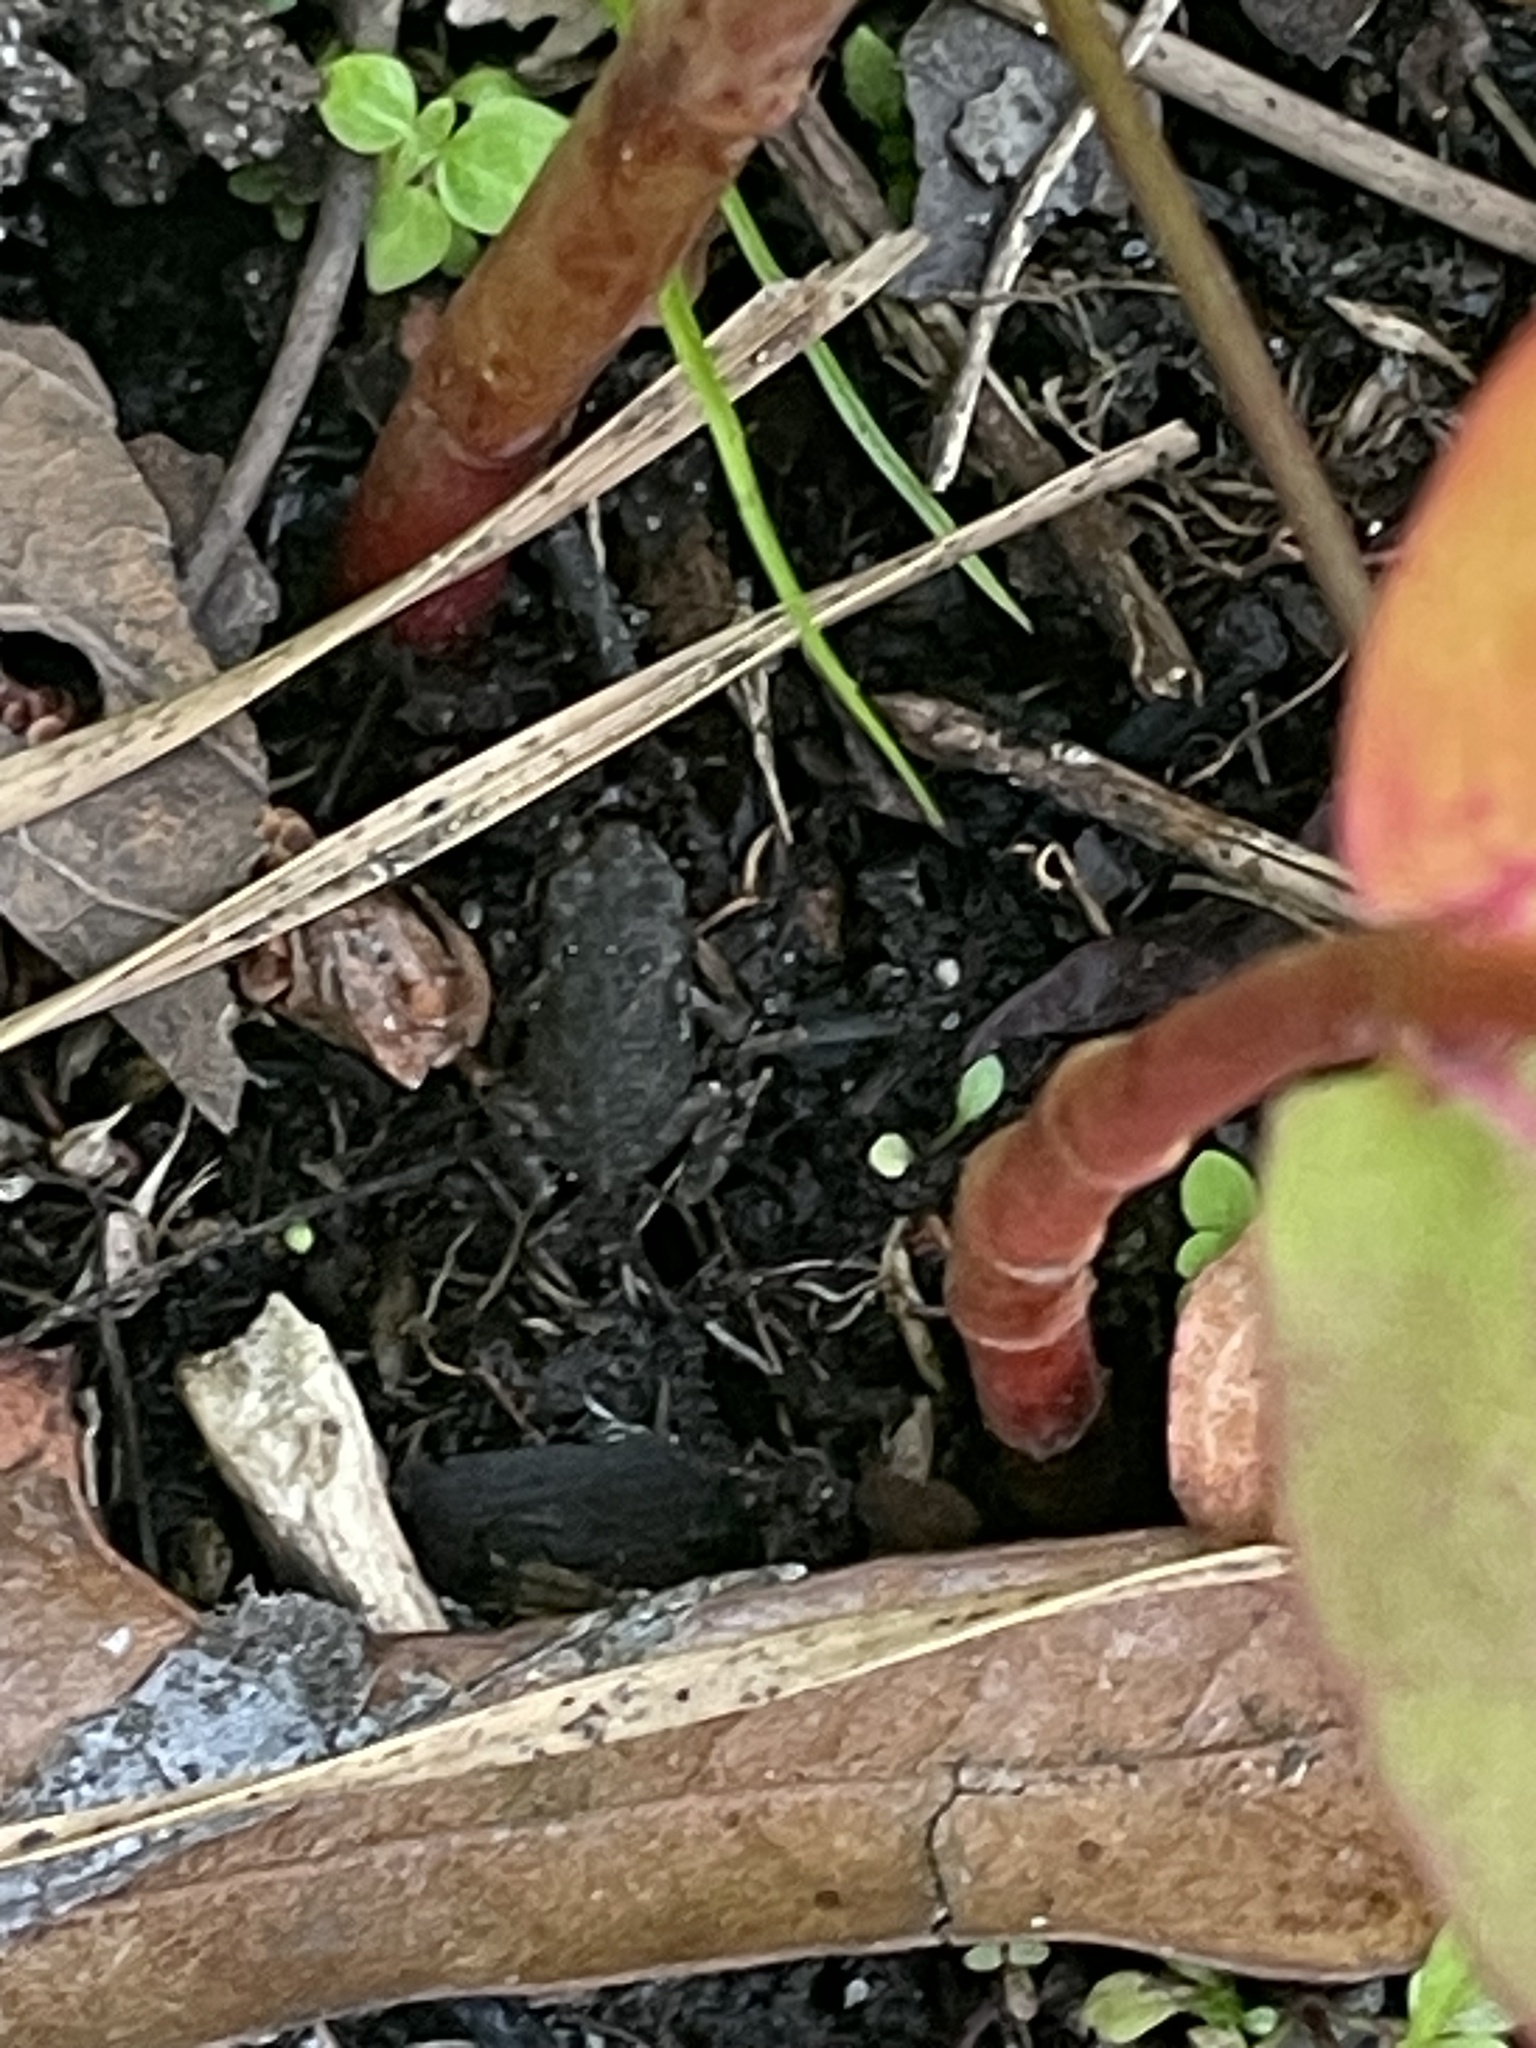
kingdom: Animalia
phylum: Chordata
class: Amphibia
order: Anura
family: Bufonidae
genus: Anaxyrus
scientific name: Anaxyrus fowleri
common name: Fowler's toad
